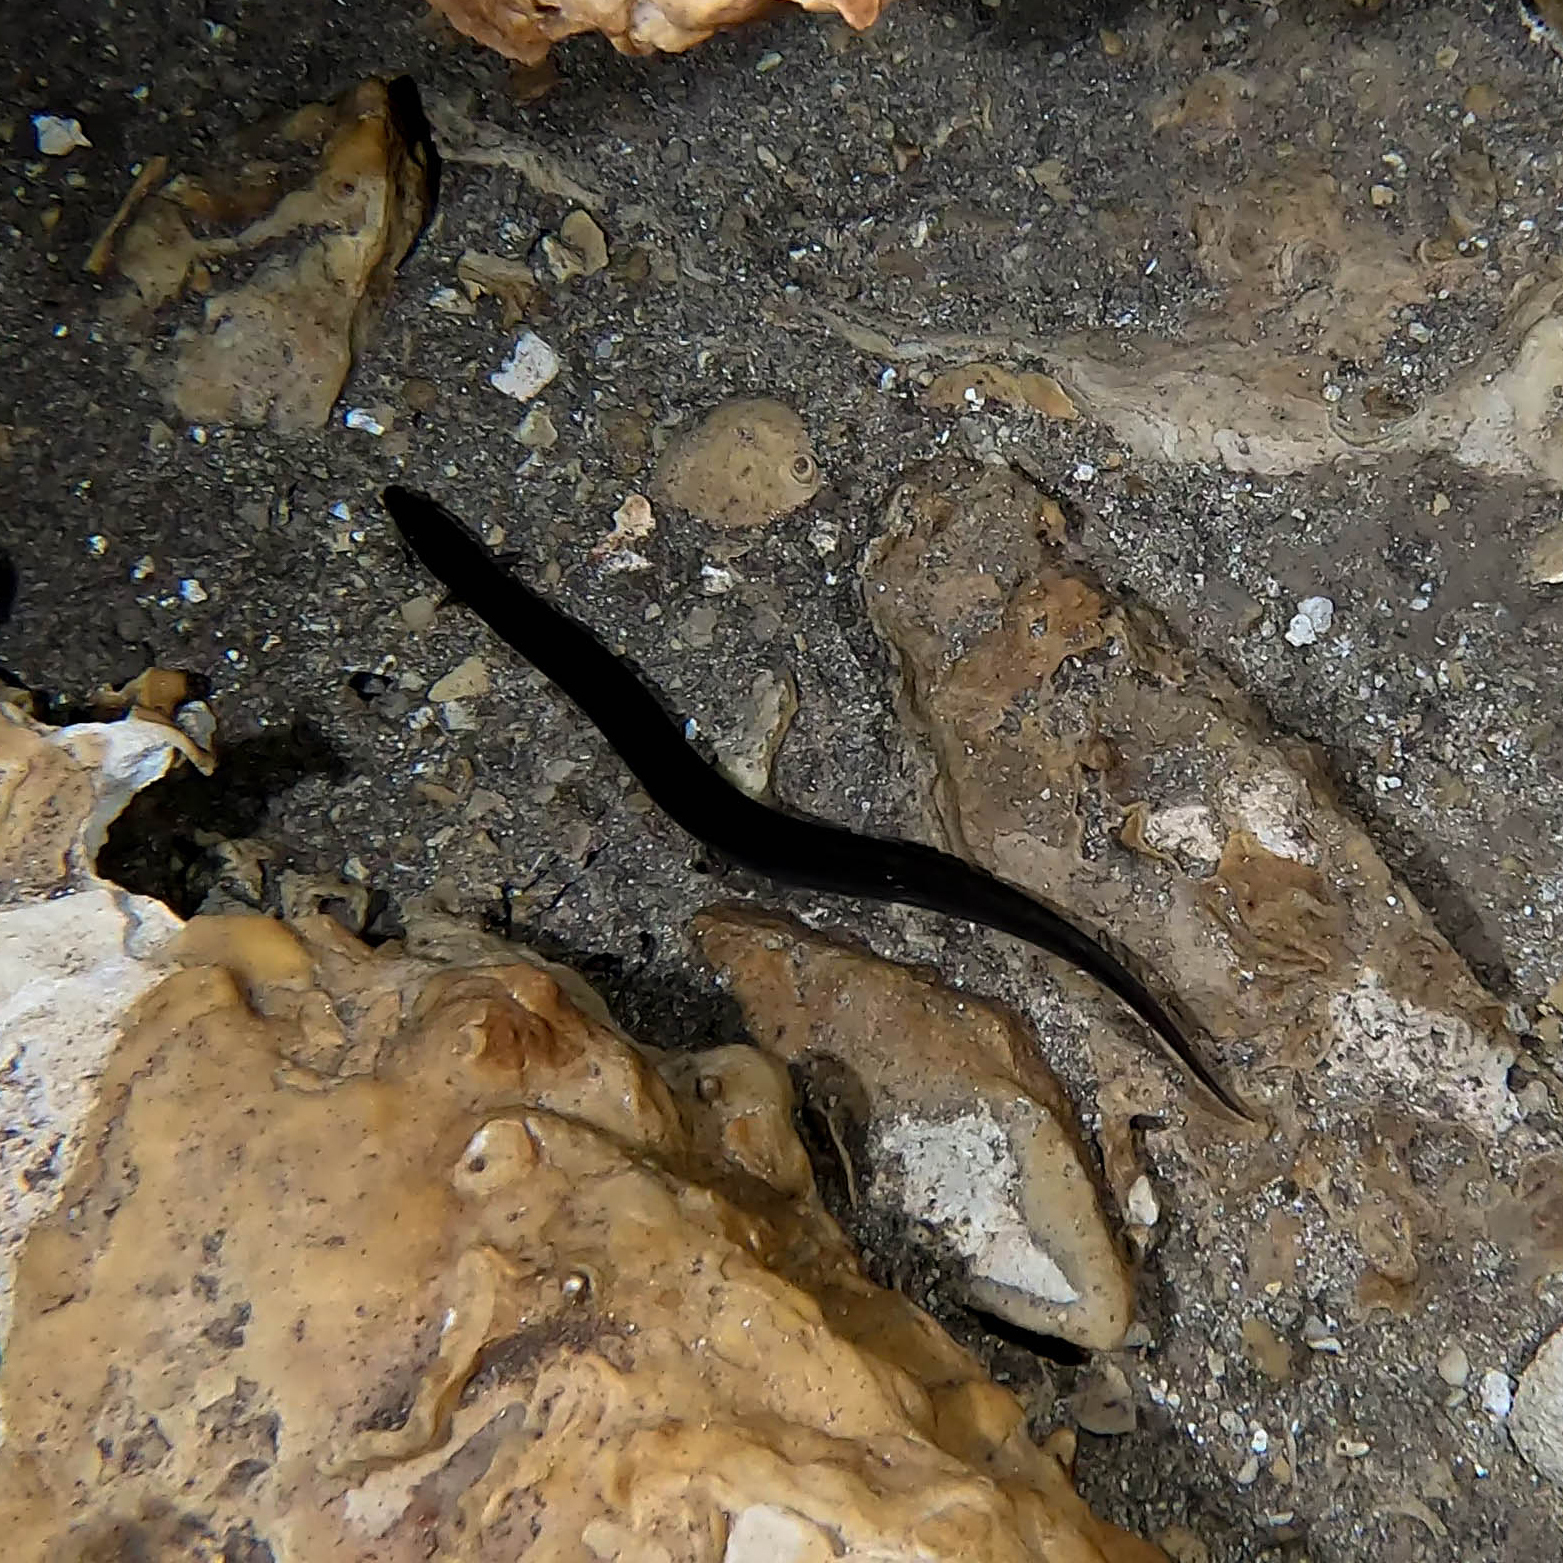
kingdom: Animalia
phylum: Chordata
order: Synbranchiformes
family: Synbranchidae
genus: Ophisternon
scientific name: Ophisternon aenigmaticum
